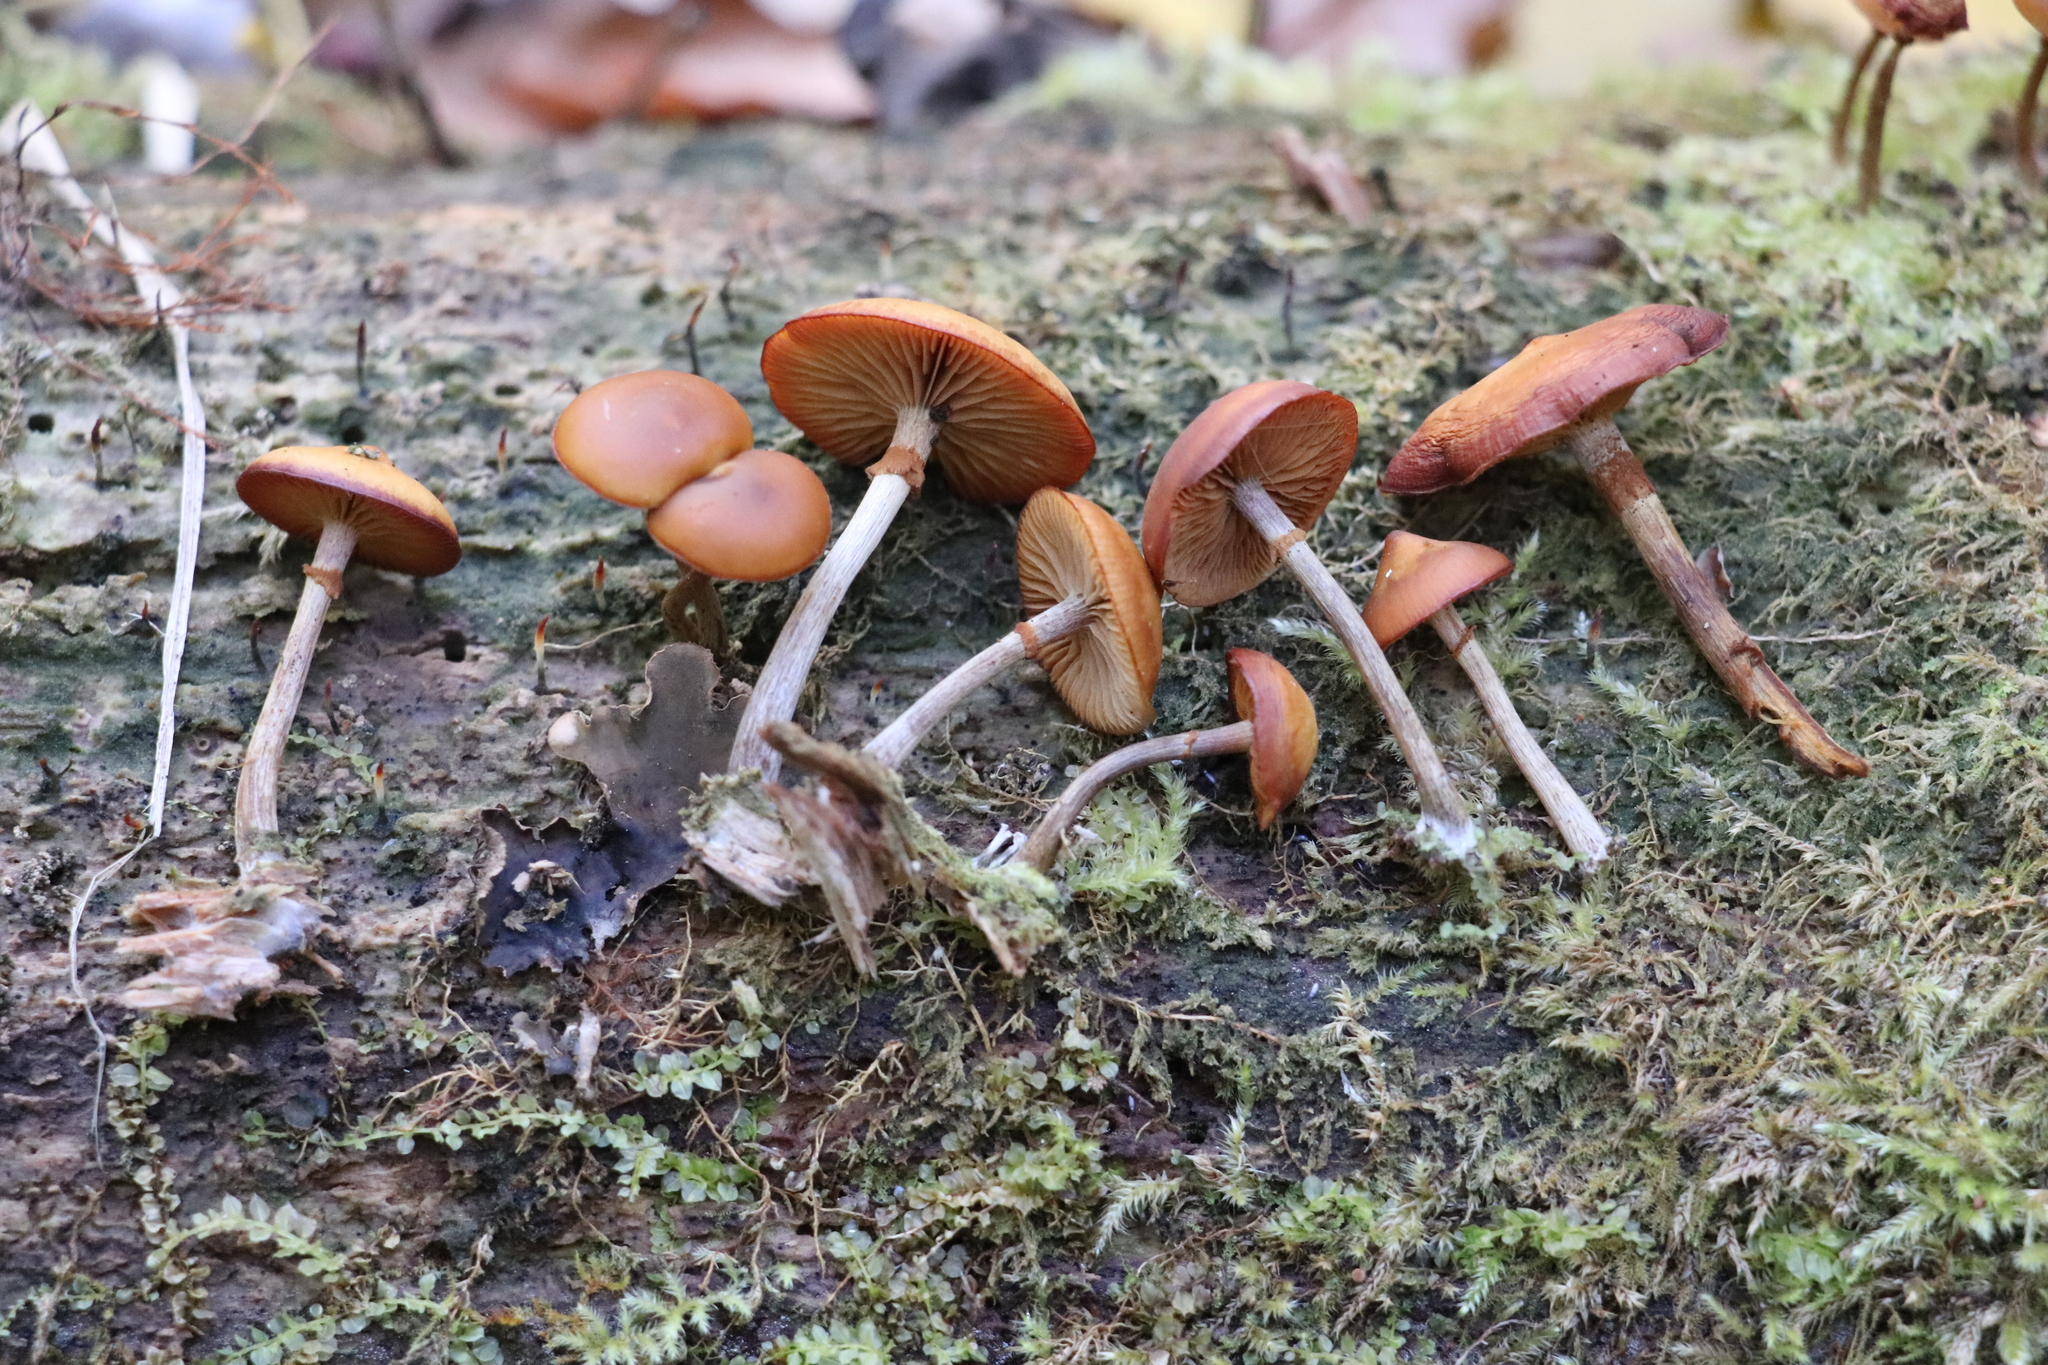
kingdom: Fungi
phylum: Basidiomycota
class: Agaricomycetes
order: Agaricales
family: Hymenogastraceae
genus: Galerina
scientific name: Galerina marginata
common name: Funeral bell
